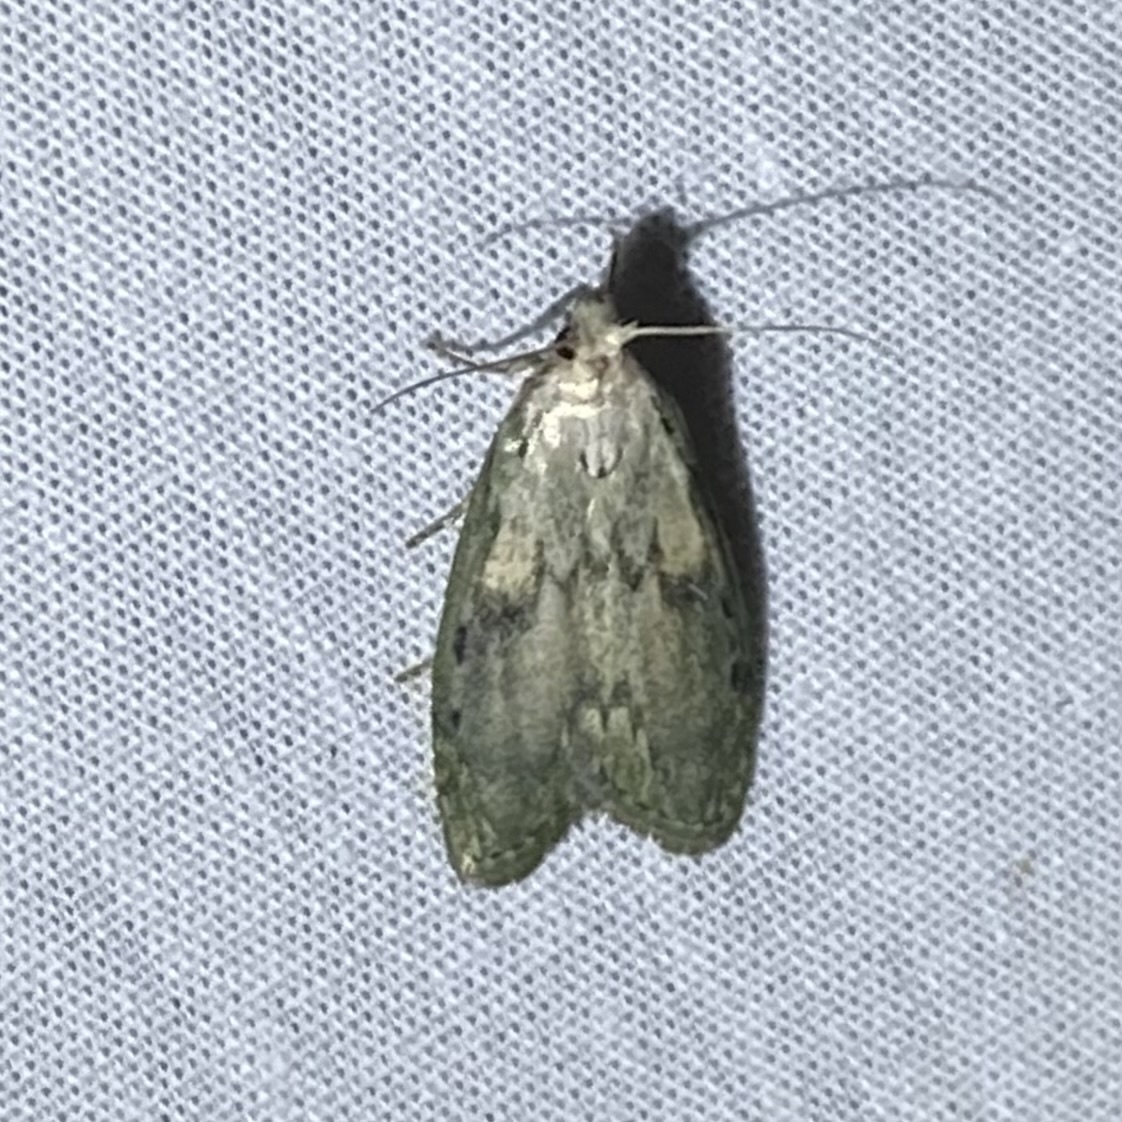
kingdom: Animalia
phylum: Arthropoda
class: Insecta
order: Lepidoptera
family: Pyralidae
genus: Aphomia
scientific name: Aphomia sociella
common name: Bee moth
